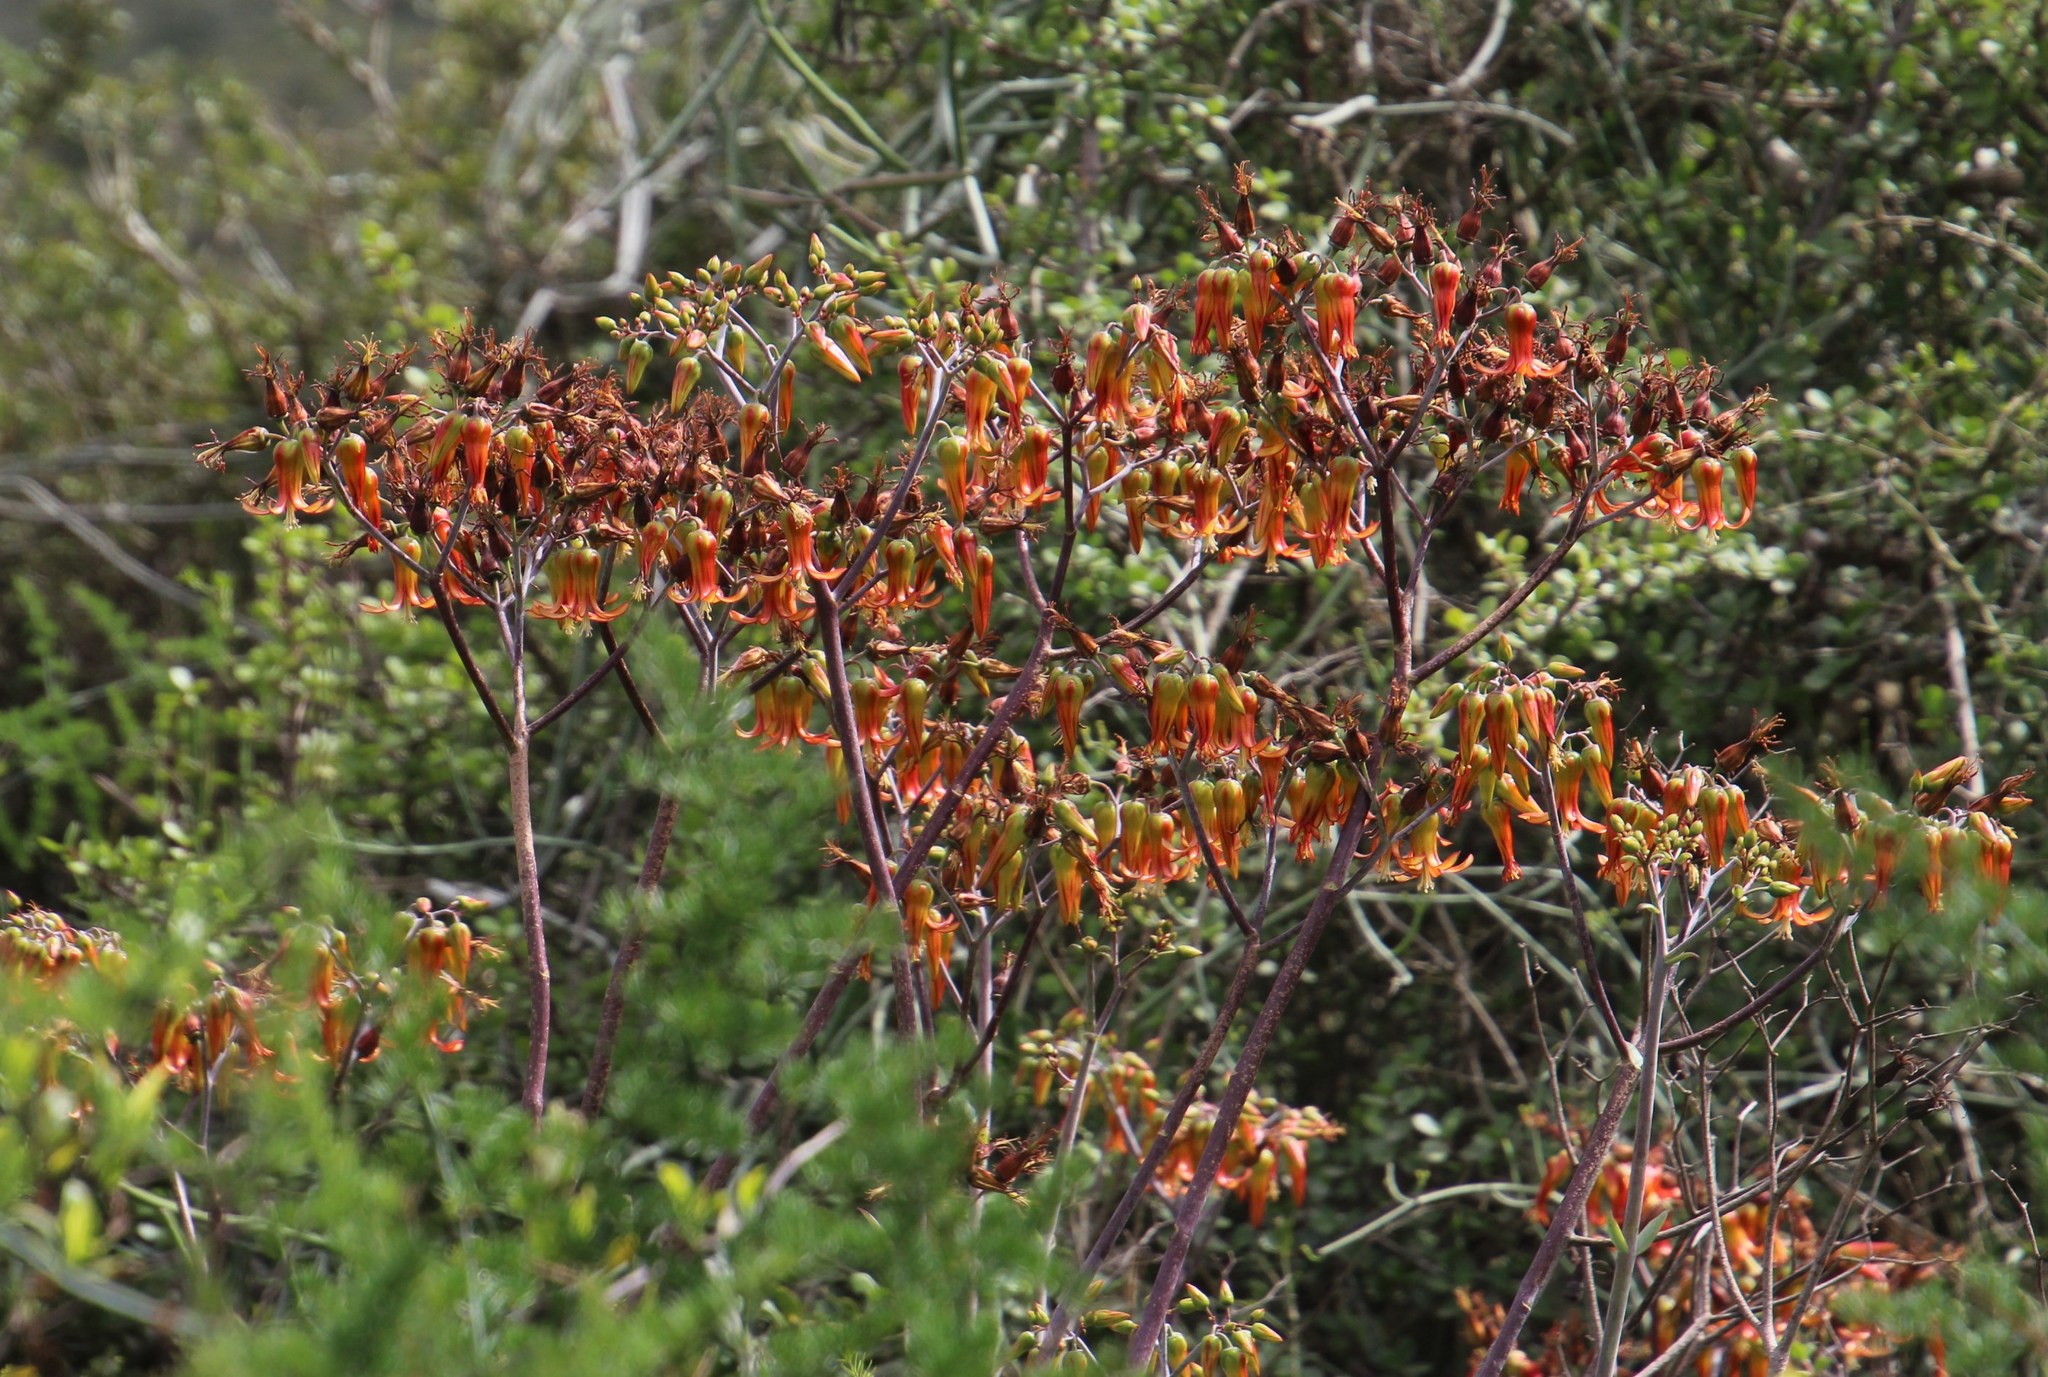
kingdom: Plantae
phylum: Tracheophyta
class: Magnoliopsida
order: Saxifragales
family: Crassulaceae
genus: Cotyledon
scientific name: Cotyledon velutina
